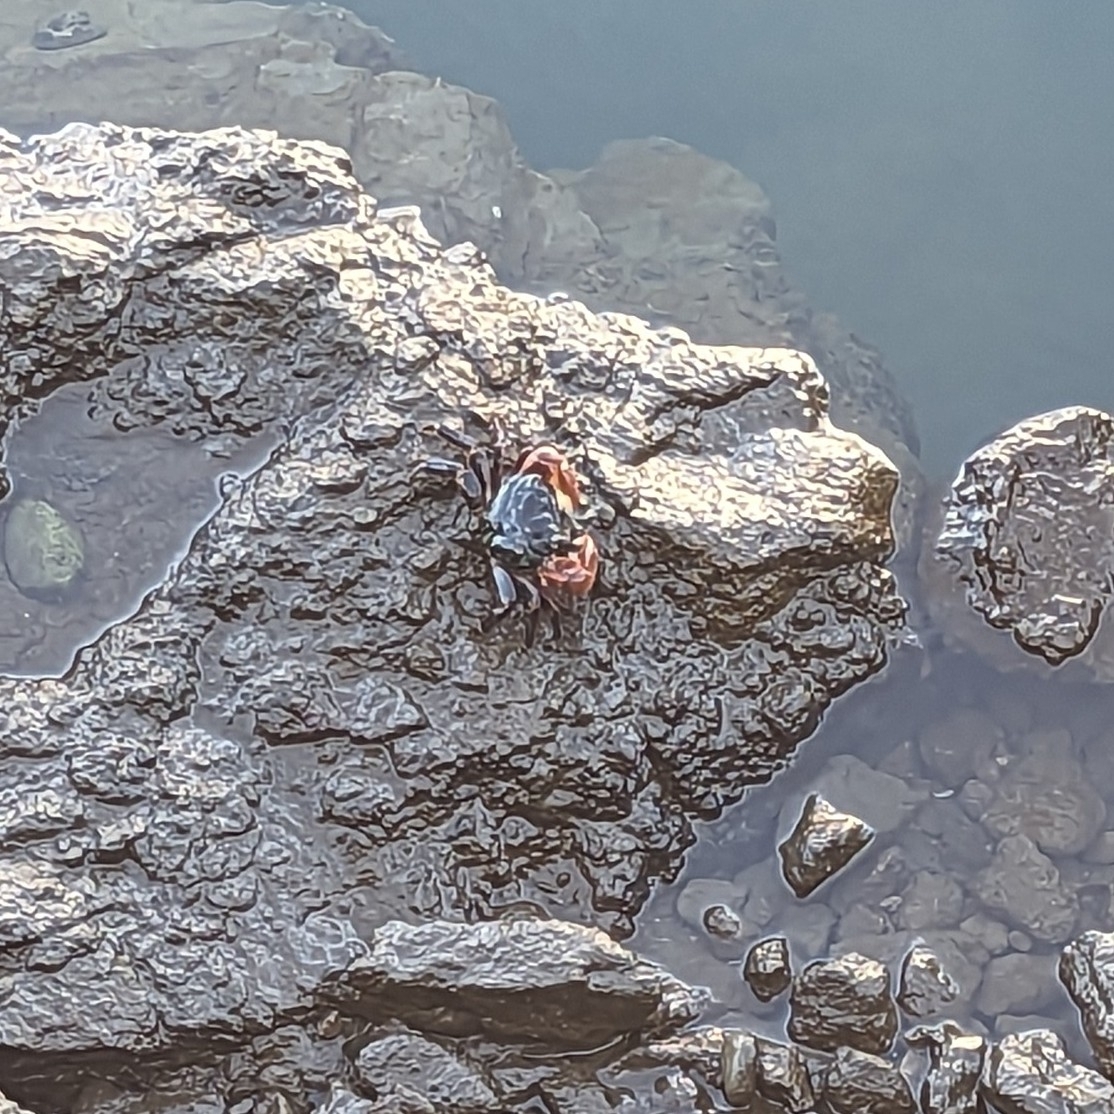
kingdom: Animalia
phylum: Arthropoda
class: Malacostraca
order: Decapoda
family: Grapsidae
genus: Pachygrapsus
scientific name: Pachygrapsus crassipes
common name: Striped shore crab
